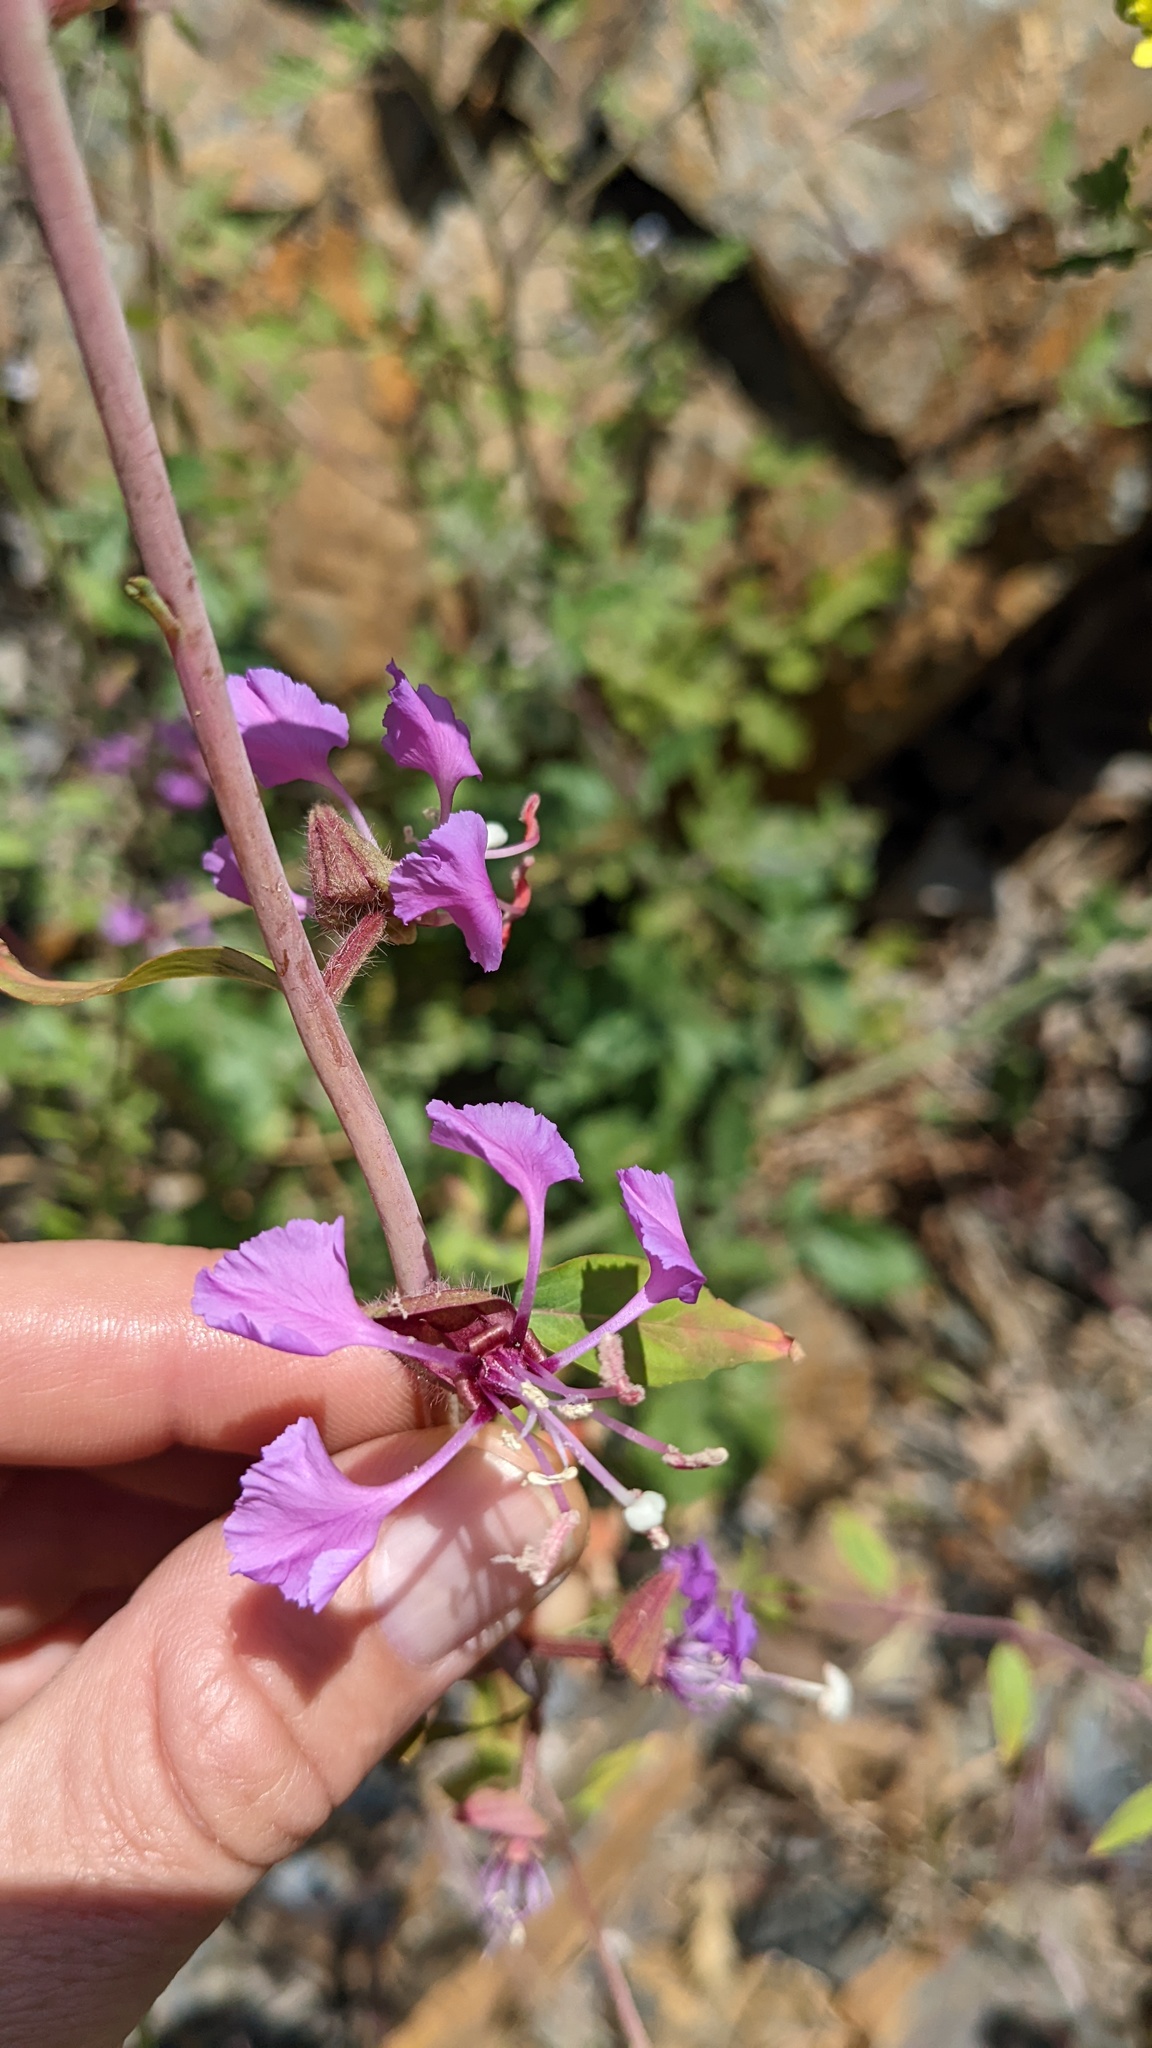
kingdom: Plantae
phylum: Tracheophyta
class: Magnoliopsida
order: Myrtales
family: Onagraceae
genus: Clarkia
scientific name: Clarkia unguiculata
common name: Clarkia
